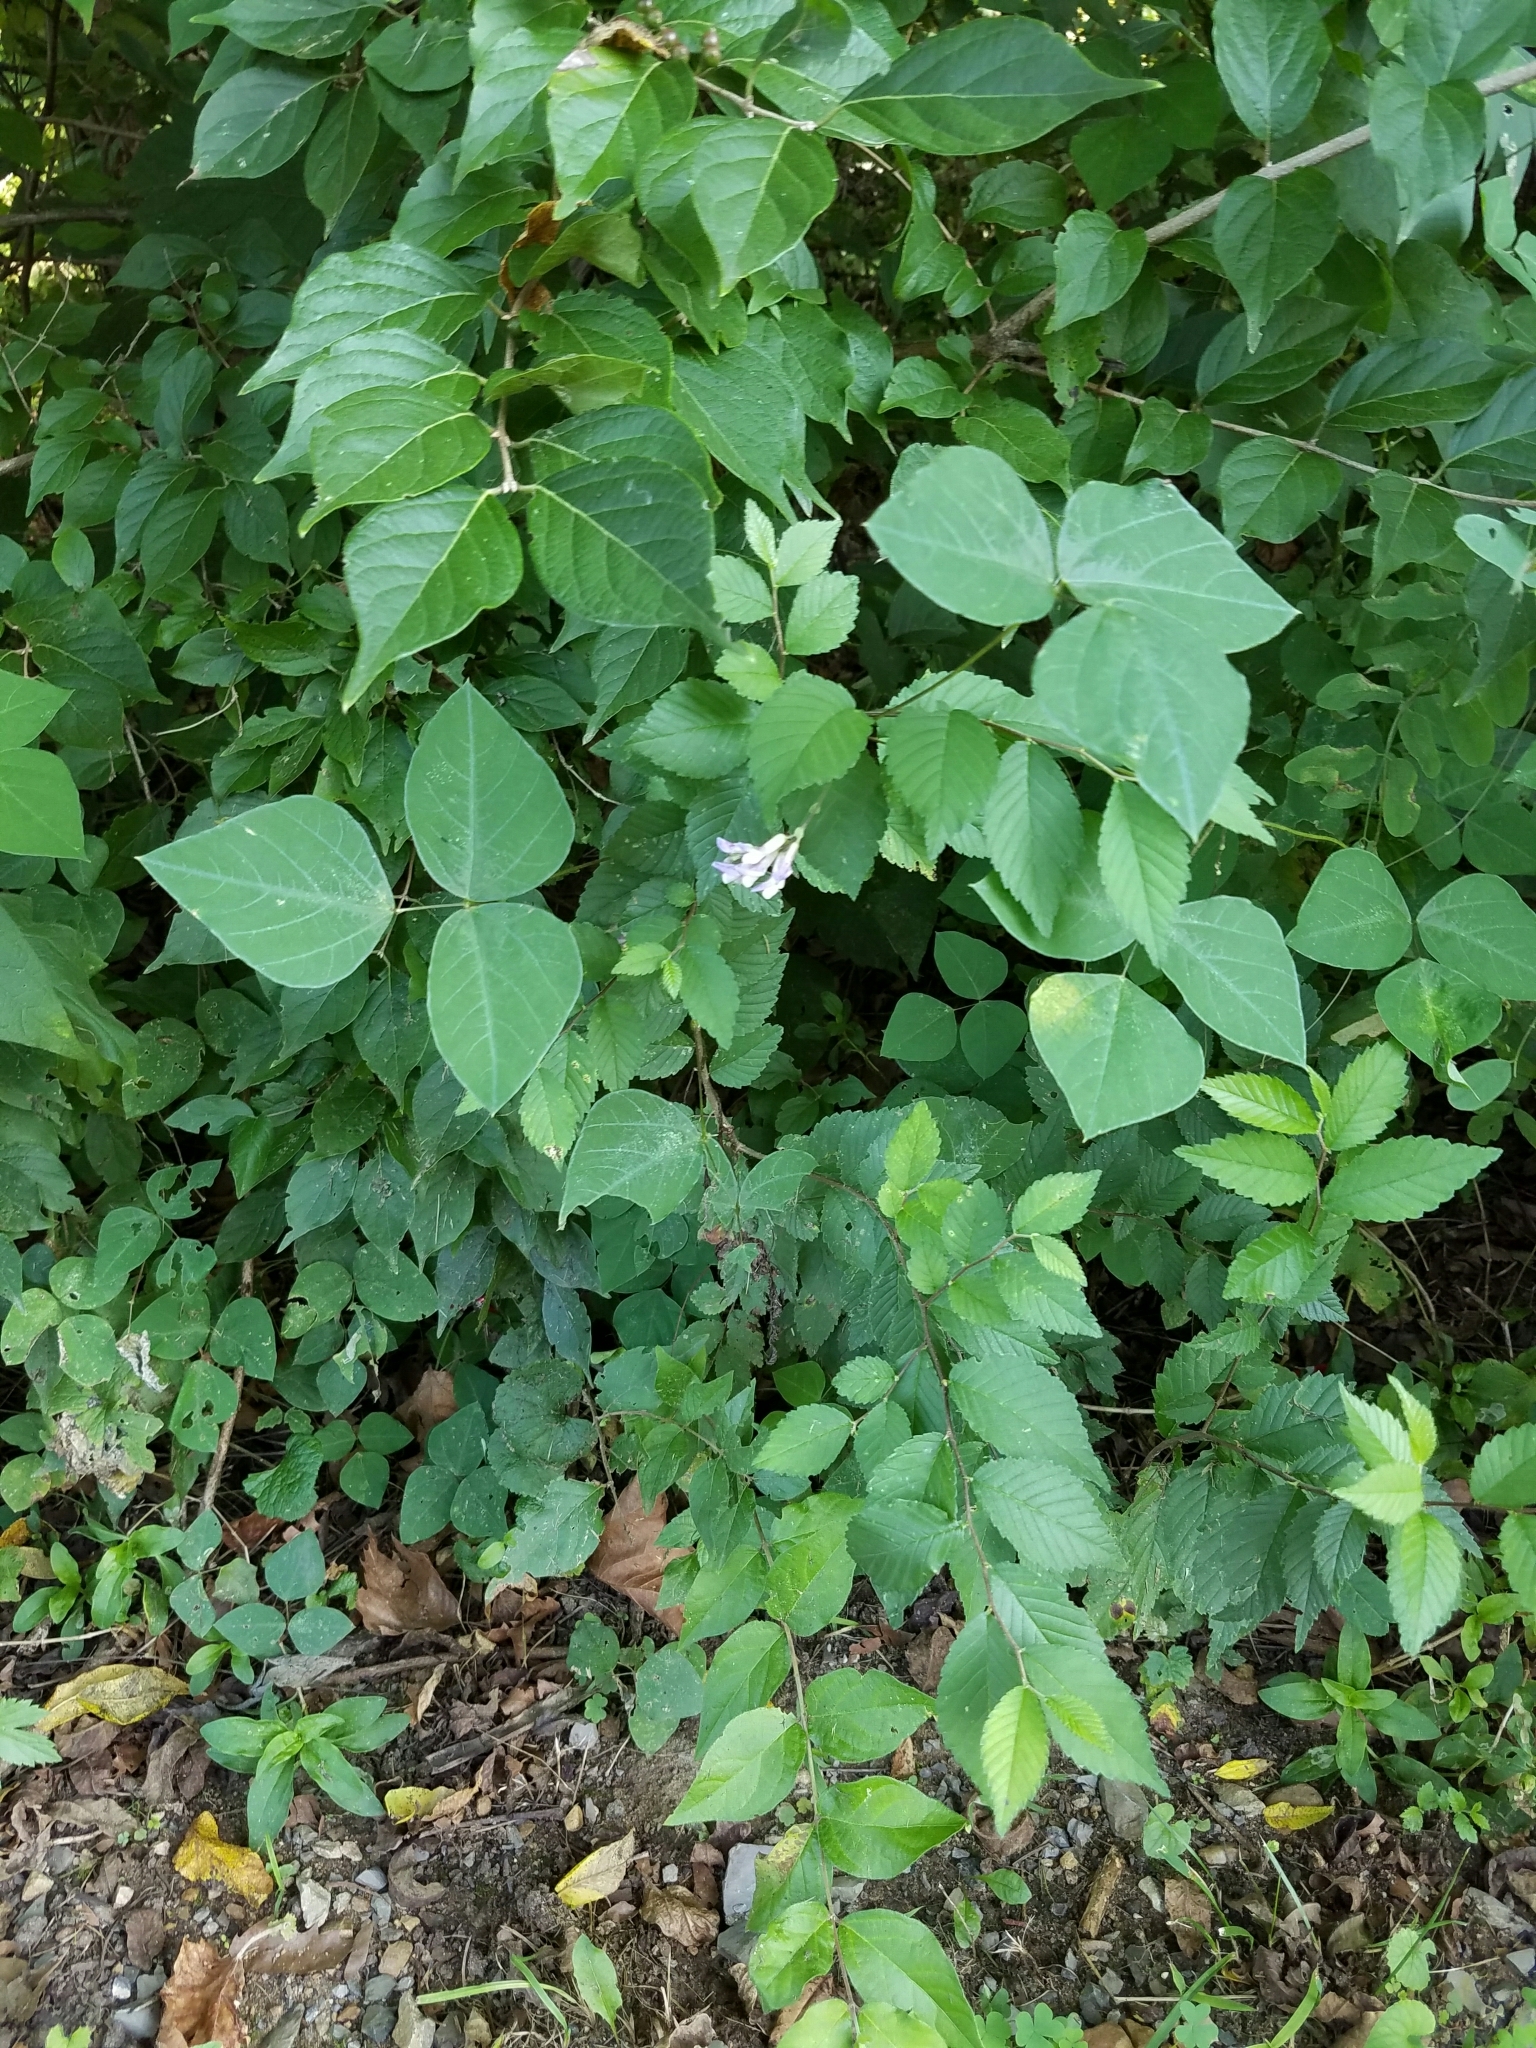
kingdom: Plantae
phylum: Tracheophyta
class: Magnoliopsida
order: Fabales
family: Fabaceae
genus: Amphicarpaea
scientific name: Amphicarpaea bracteata
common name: American hog peanut
